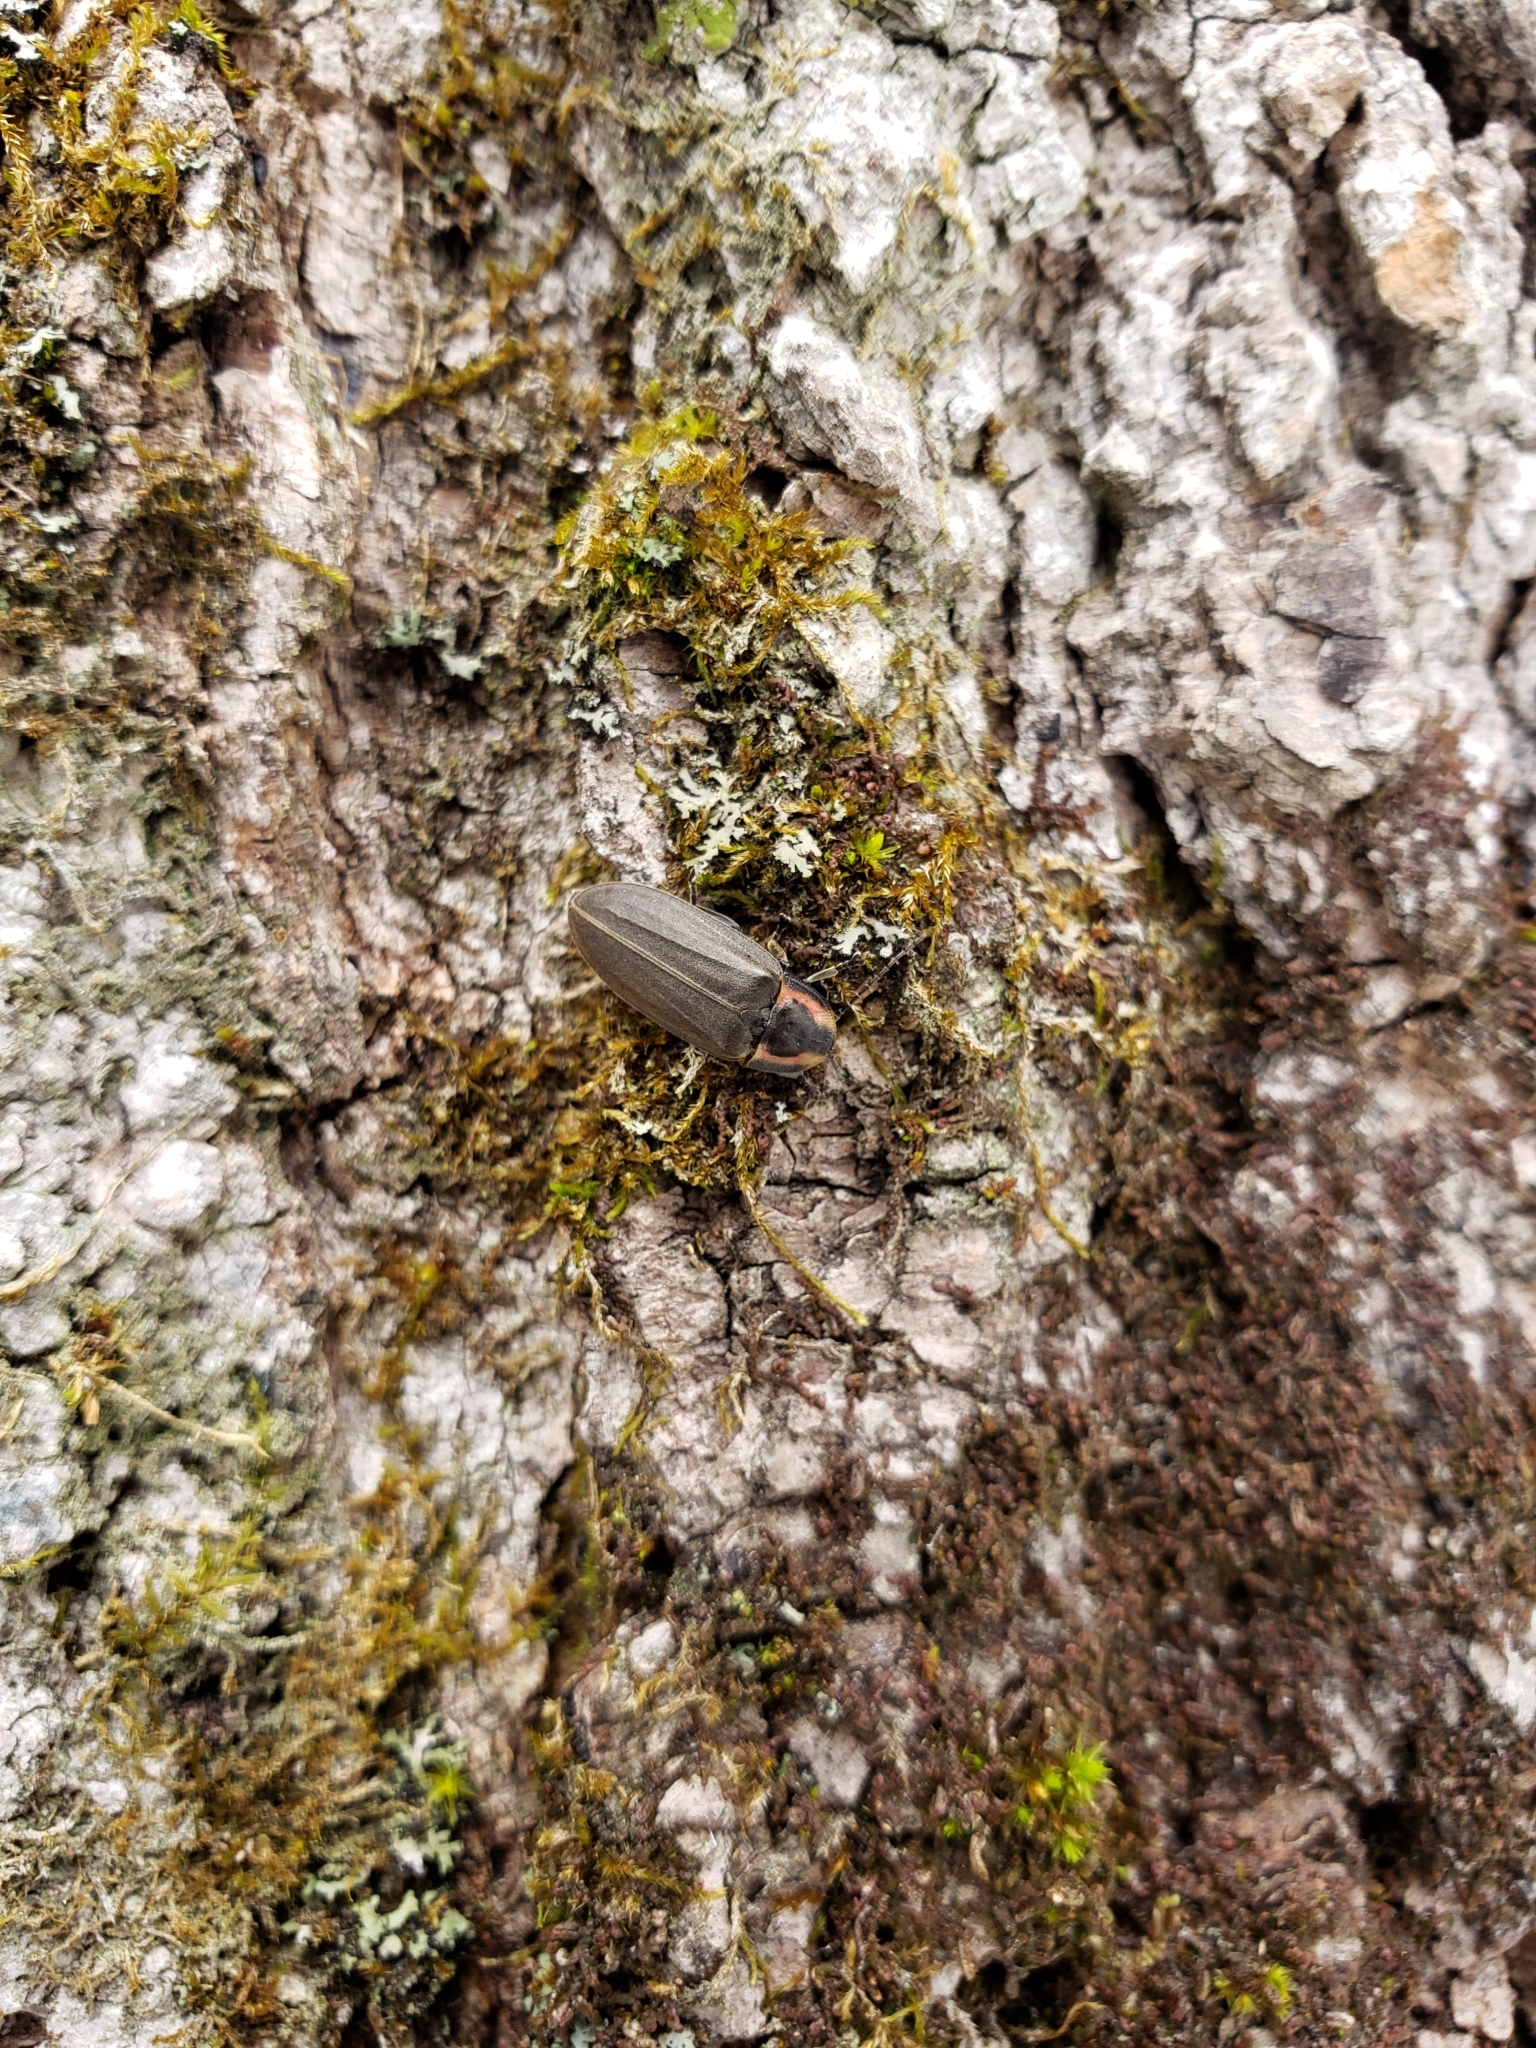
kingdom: Animalia
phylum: Arthropoda
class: Insecta
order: Coleoptera
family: Lampyridae
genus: Photinus
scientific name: Photinus corrusca
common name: Winter firefly
